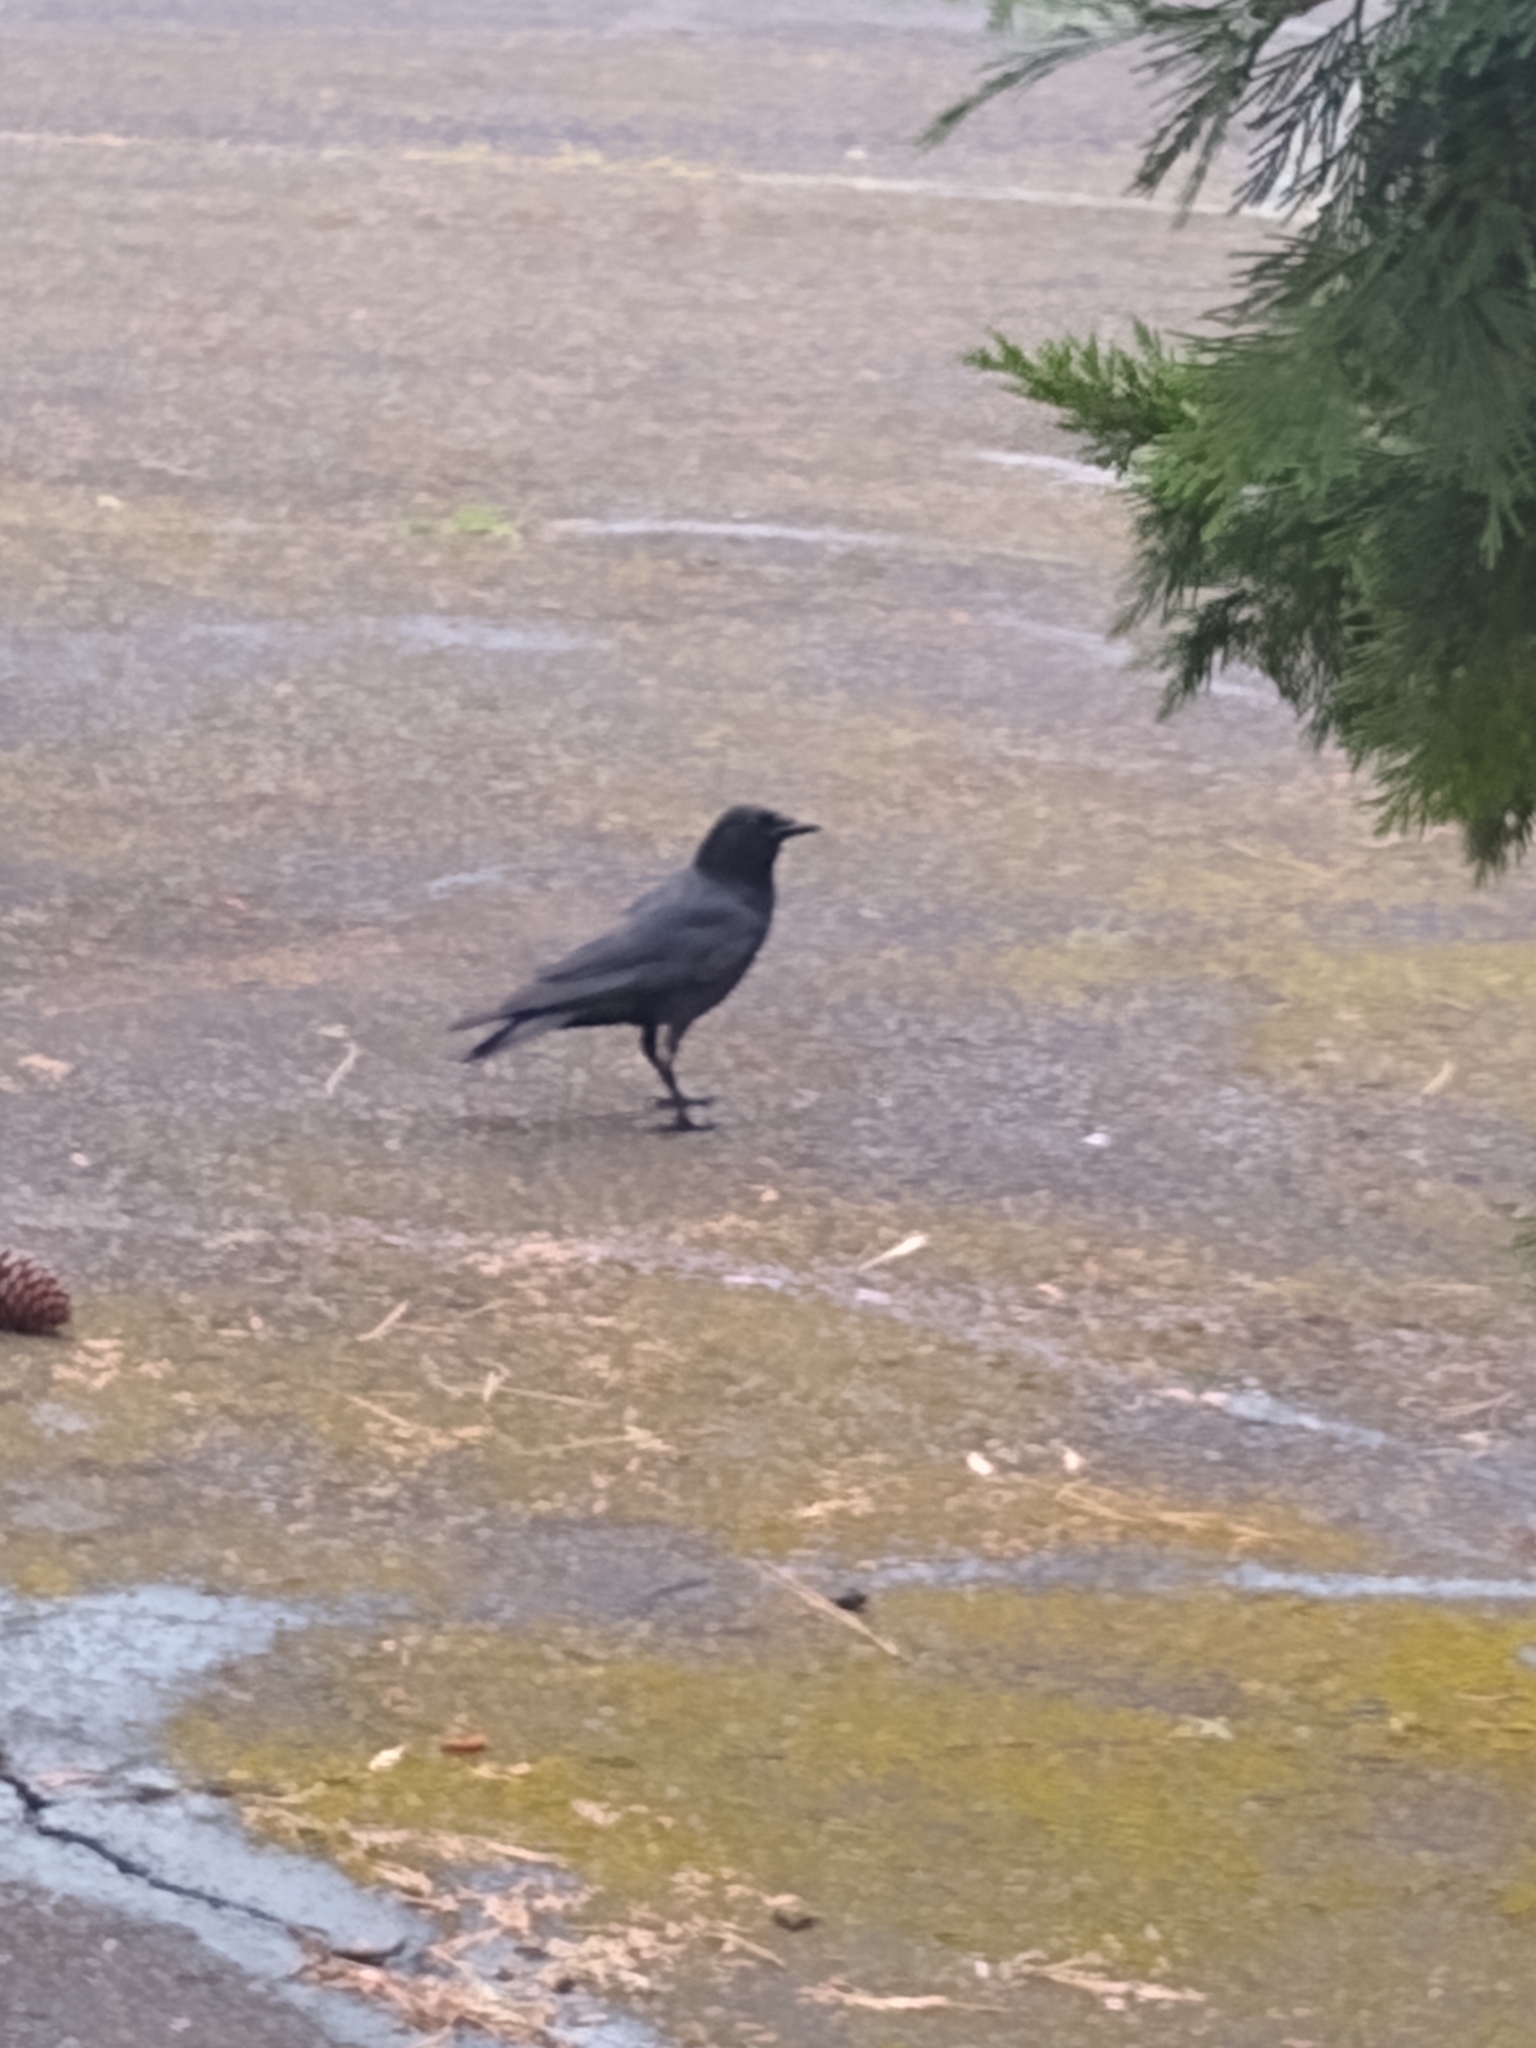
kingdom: Animalia
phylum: Chordata
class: Aves
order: Passeriformes
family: Corvidae
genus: Corvus
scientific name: Corvus brachyrhynchos
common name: American crow
